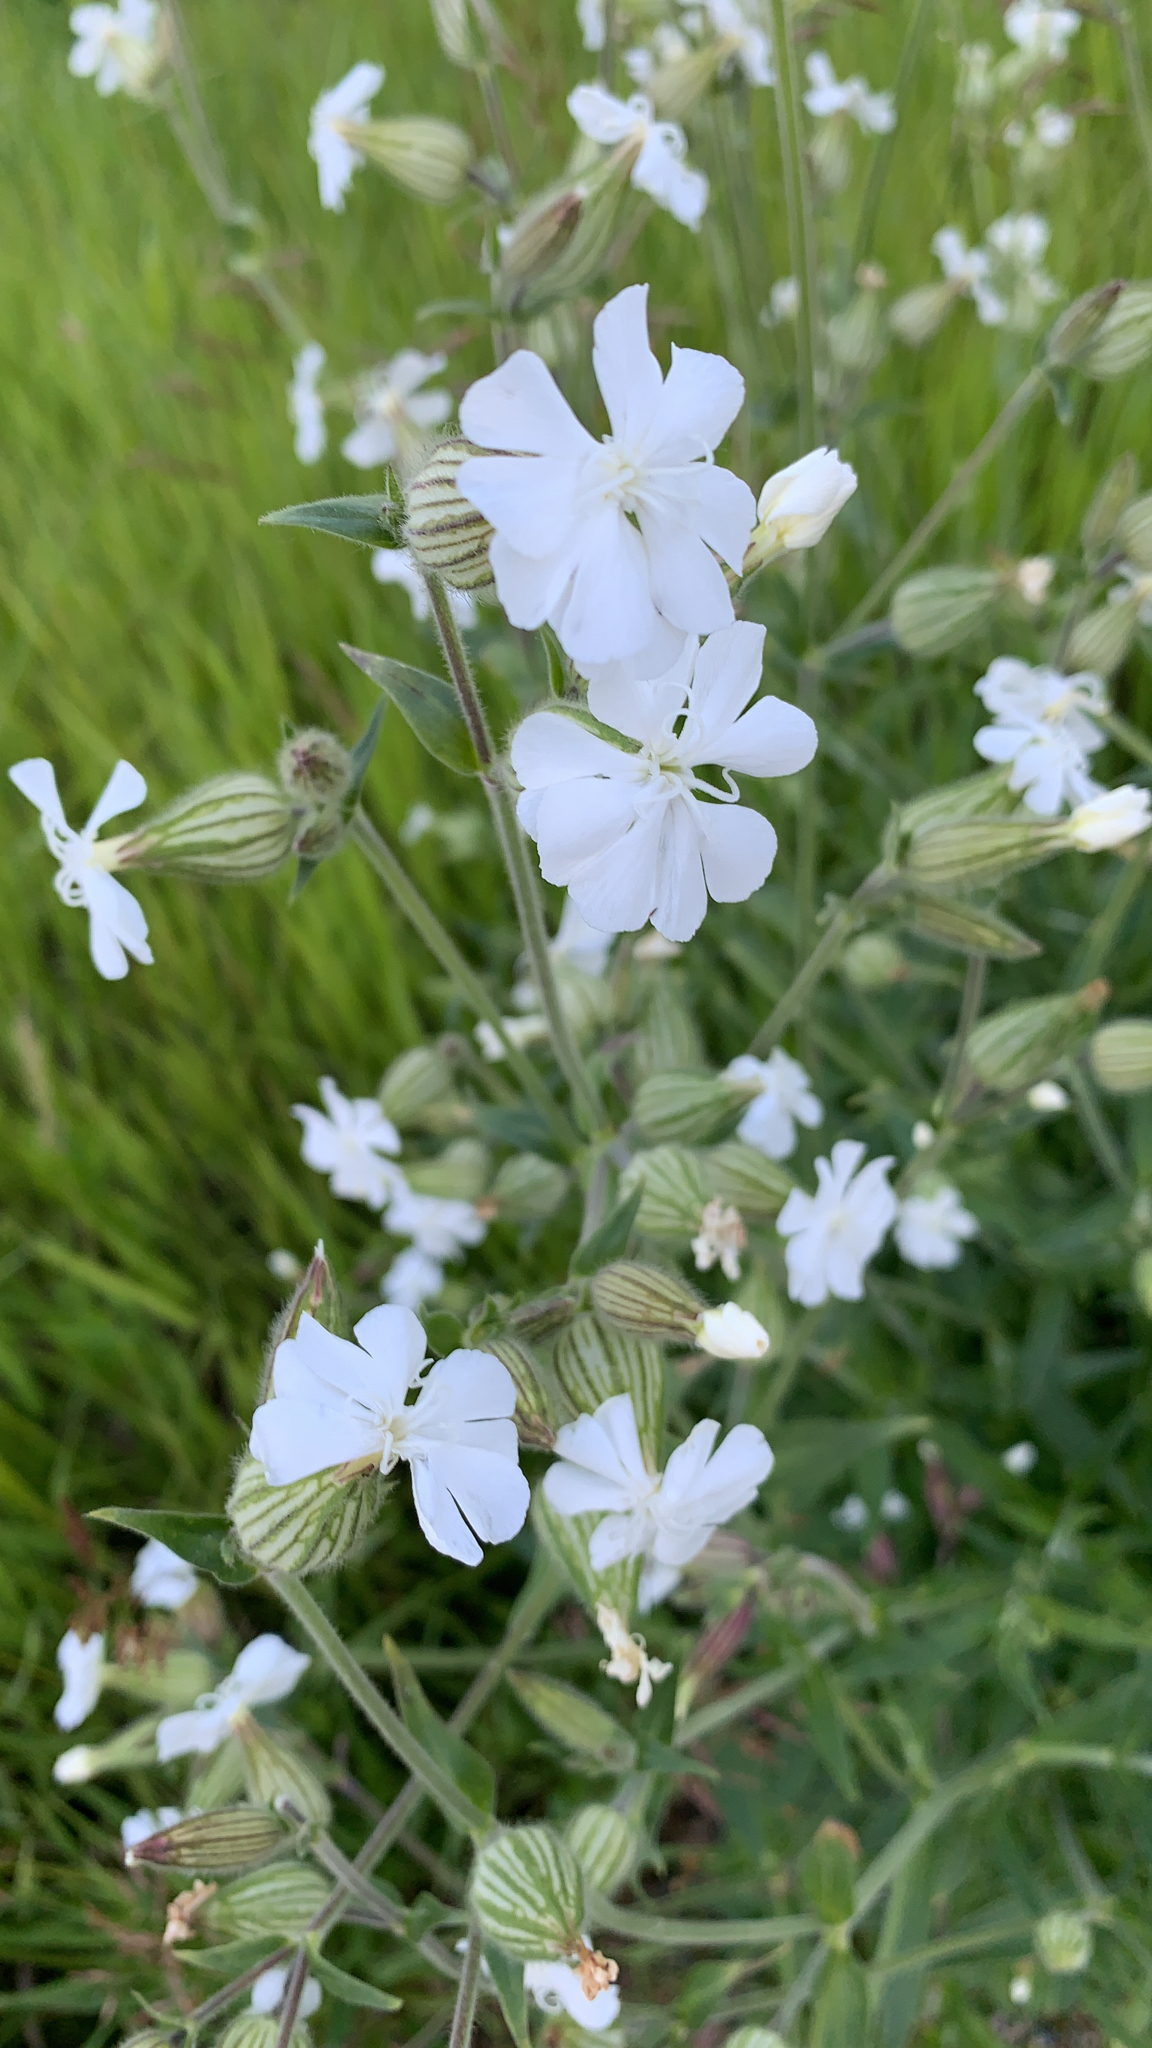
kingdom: Plantae
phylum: Tracheophyta
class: Magnoliopsida
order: Caryophyllales
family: Caryophyllaceae
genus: Silene
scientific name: Silene latifolia
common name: White campion
